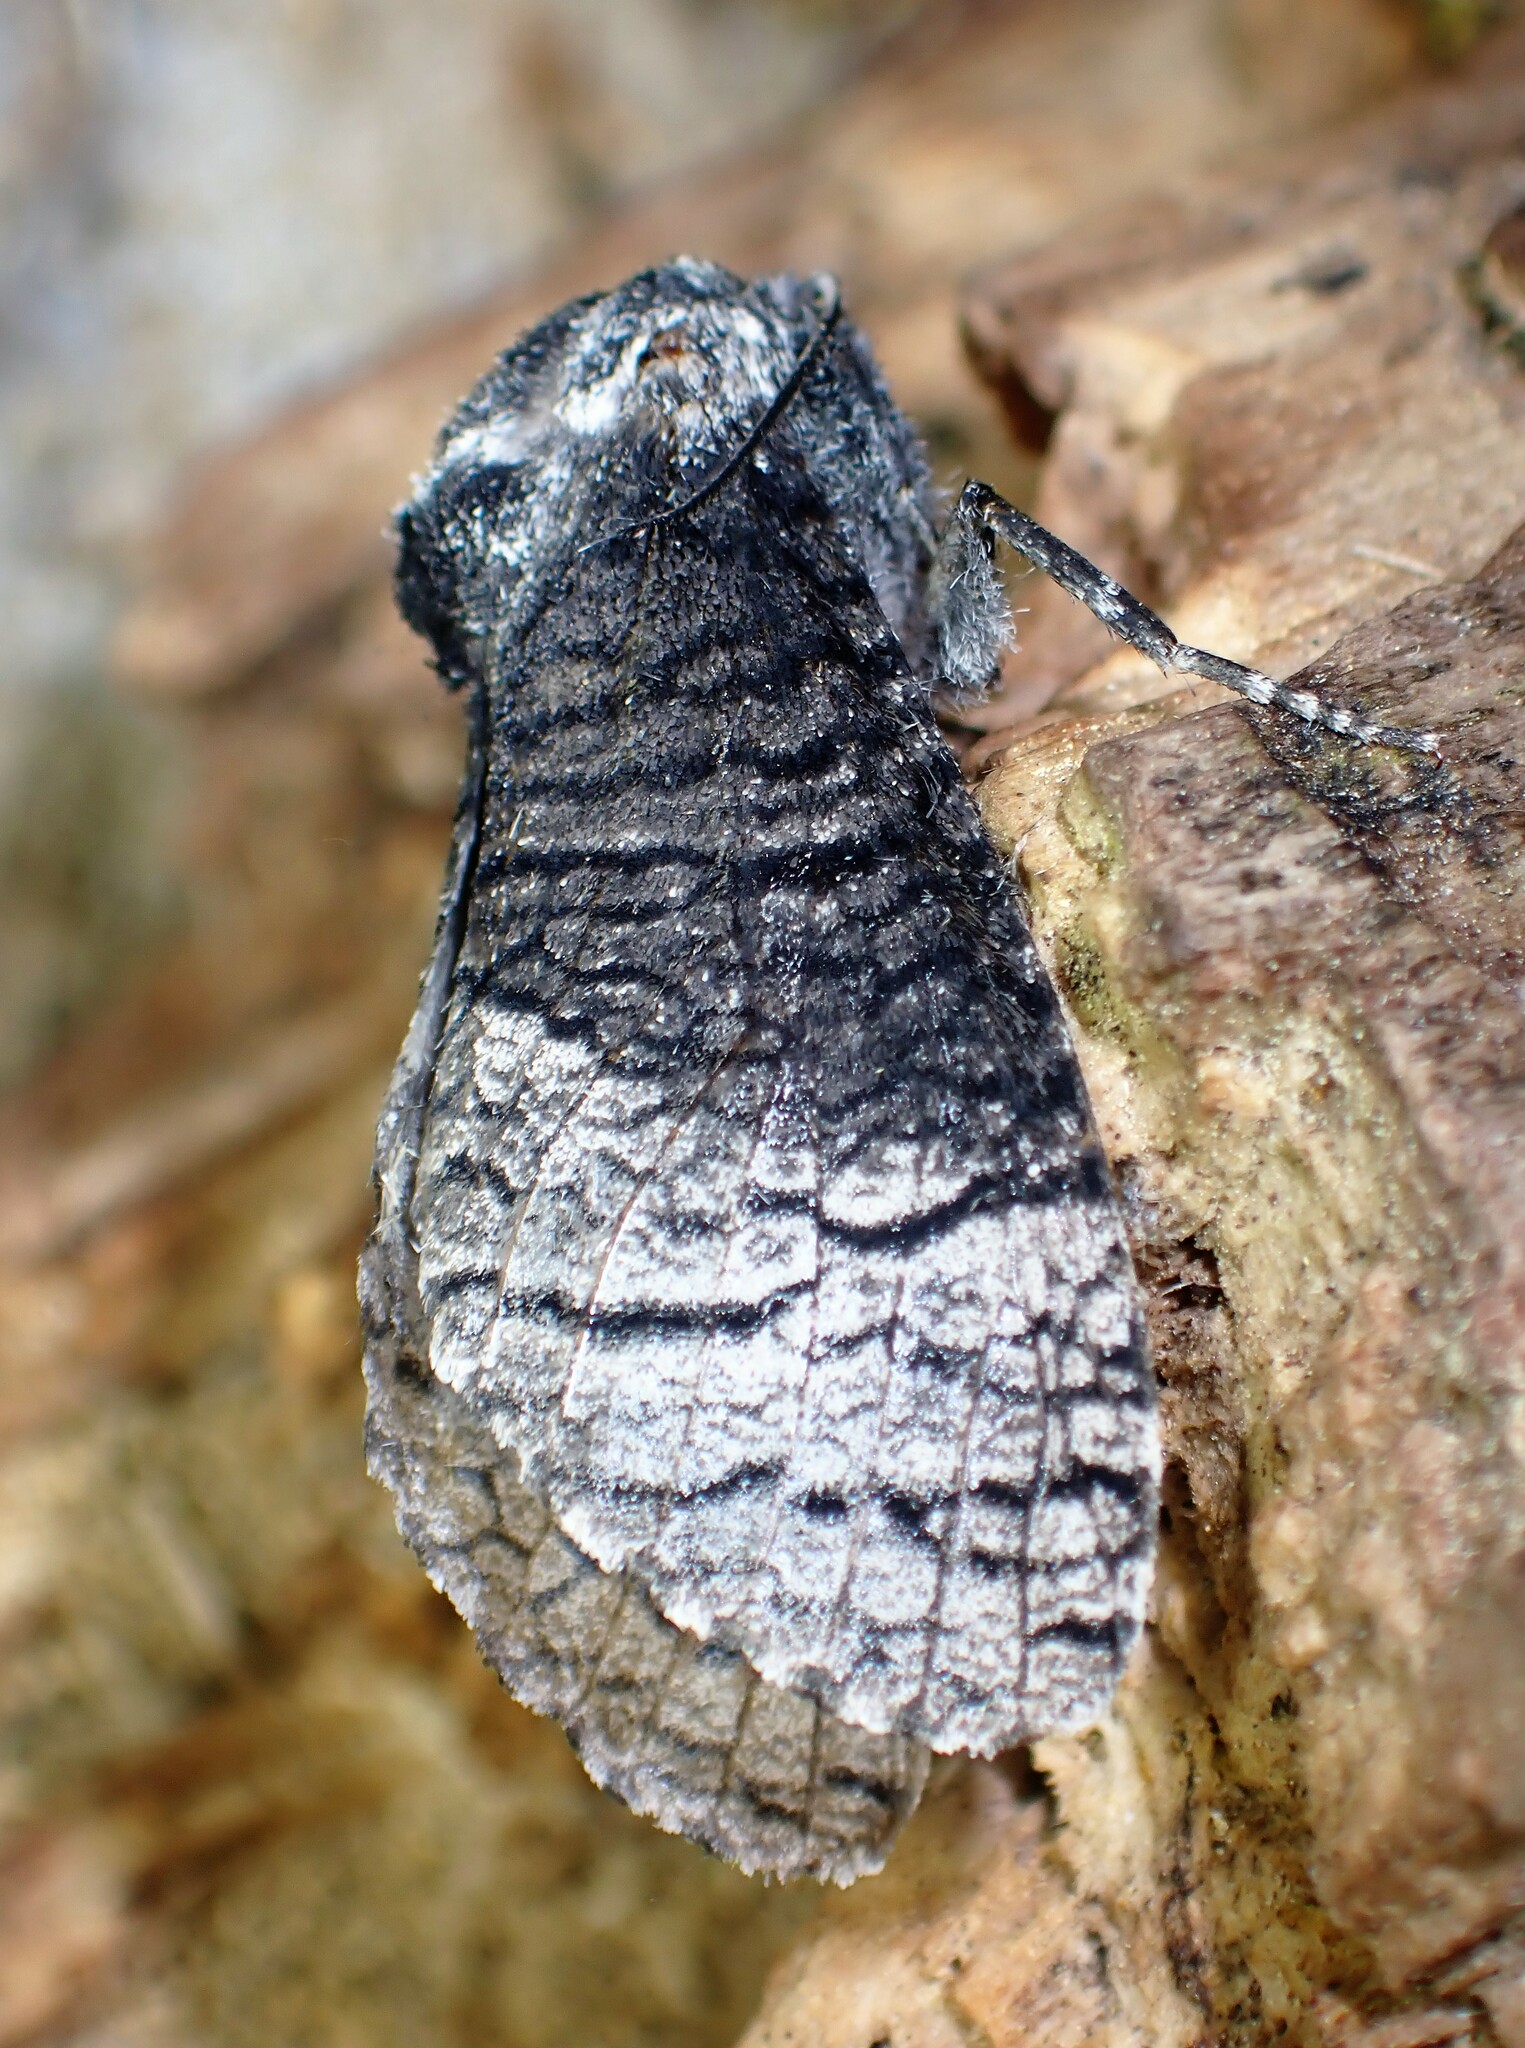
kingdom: Animalia
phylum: Arthropoda
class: Insecta
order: Lepidoptera
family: Cossidae
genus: Acossus
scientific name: Acossus centerensis
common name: Poplar carpenterworm moth
